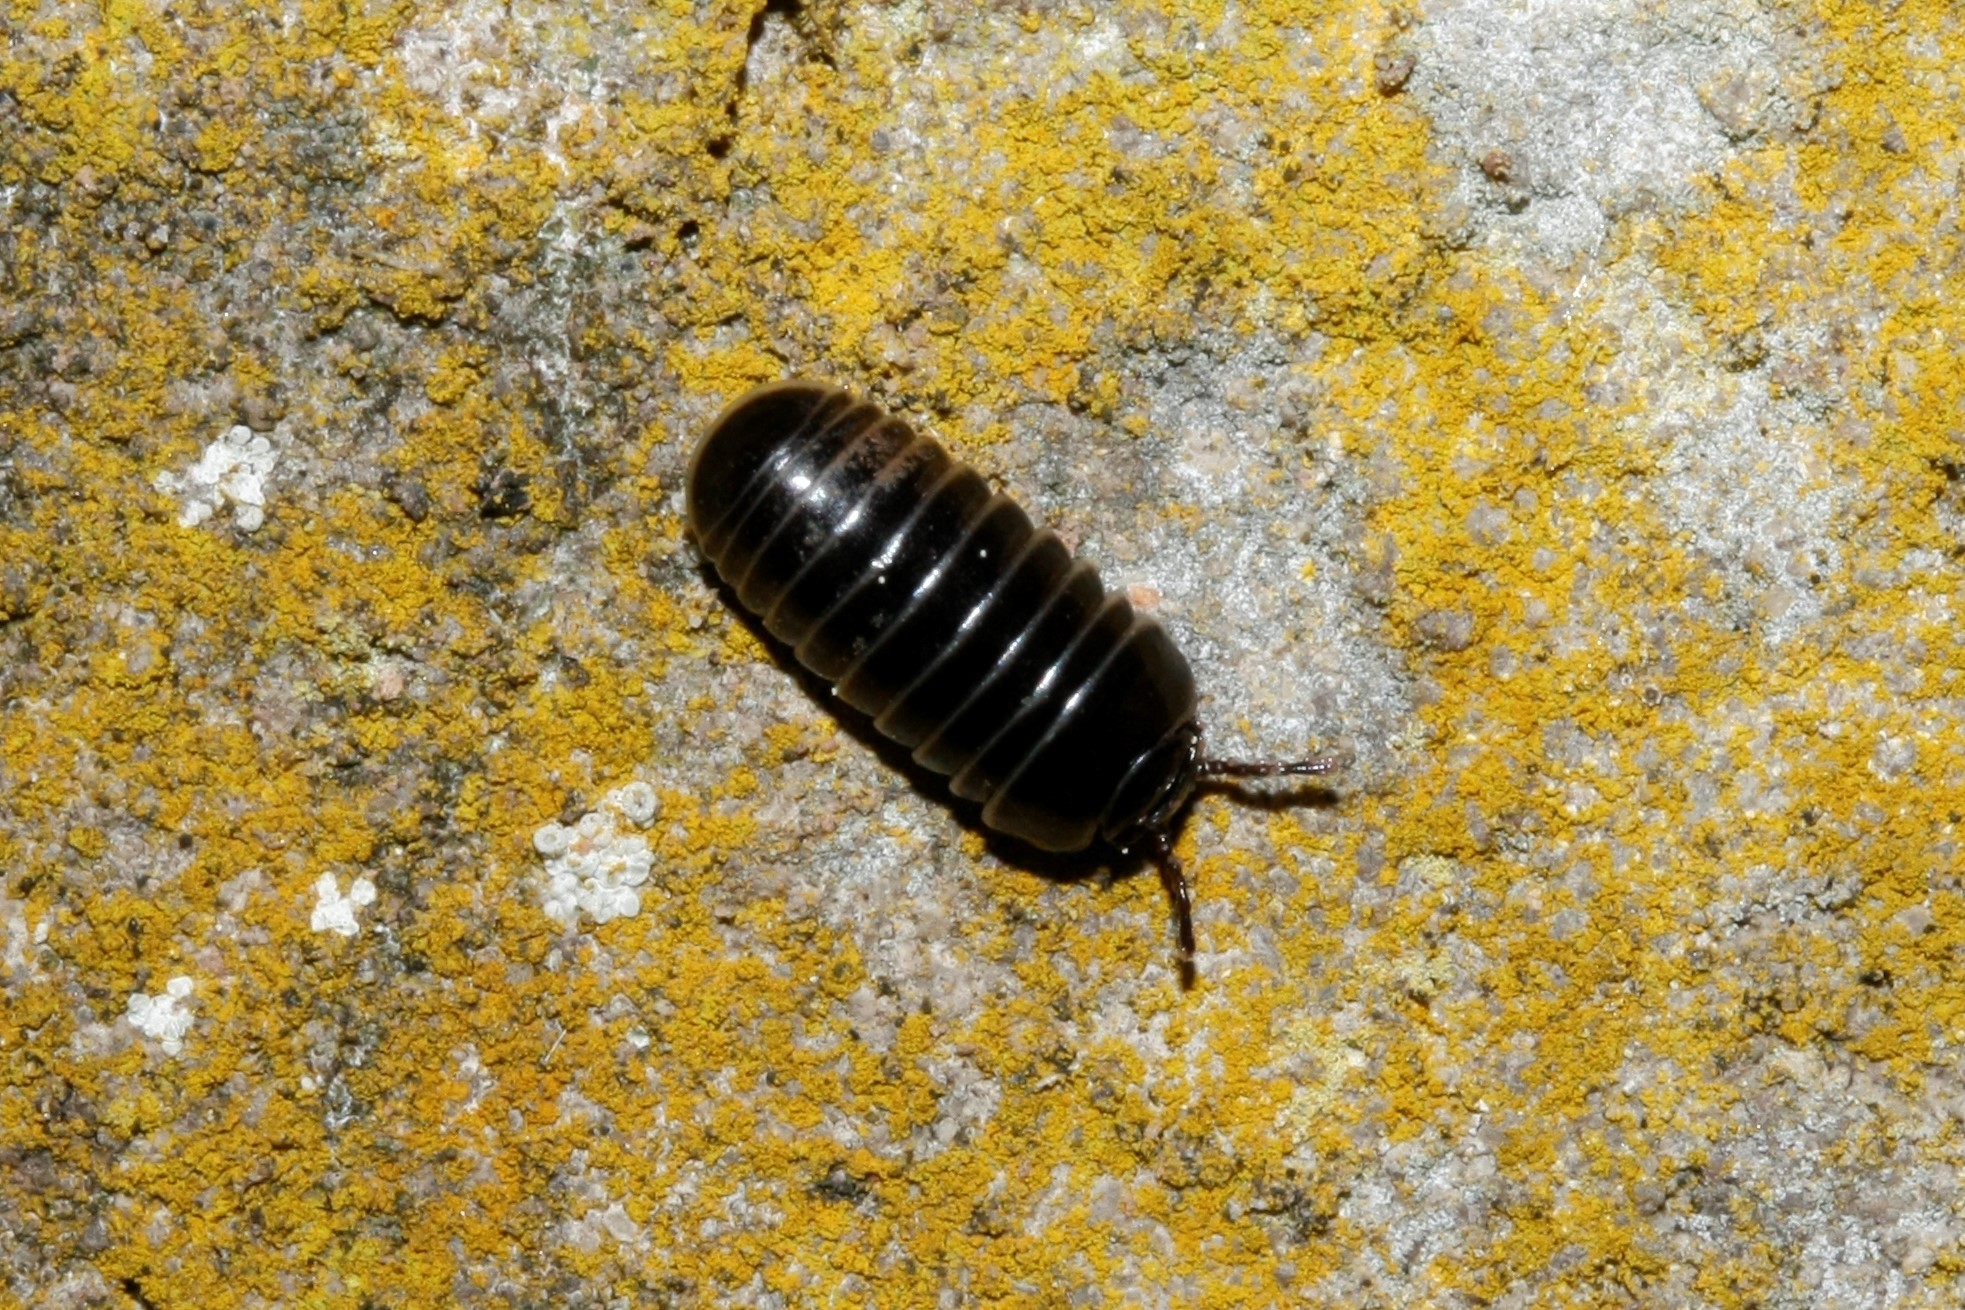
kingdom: Animalia
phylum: Arthropoda
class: Diplopoda
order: Glomerida
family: Glomeridae
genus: Glomeris
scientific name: Glomeris marginata
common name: Bordered pill millipede
